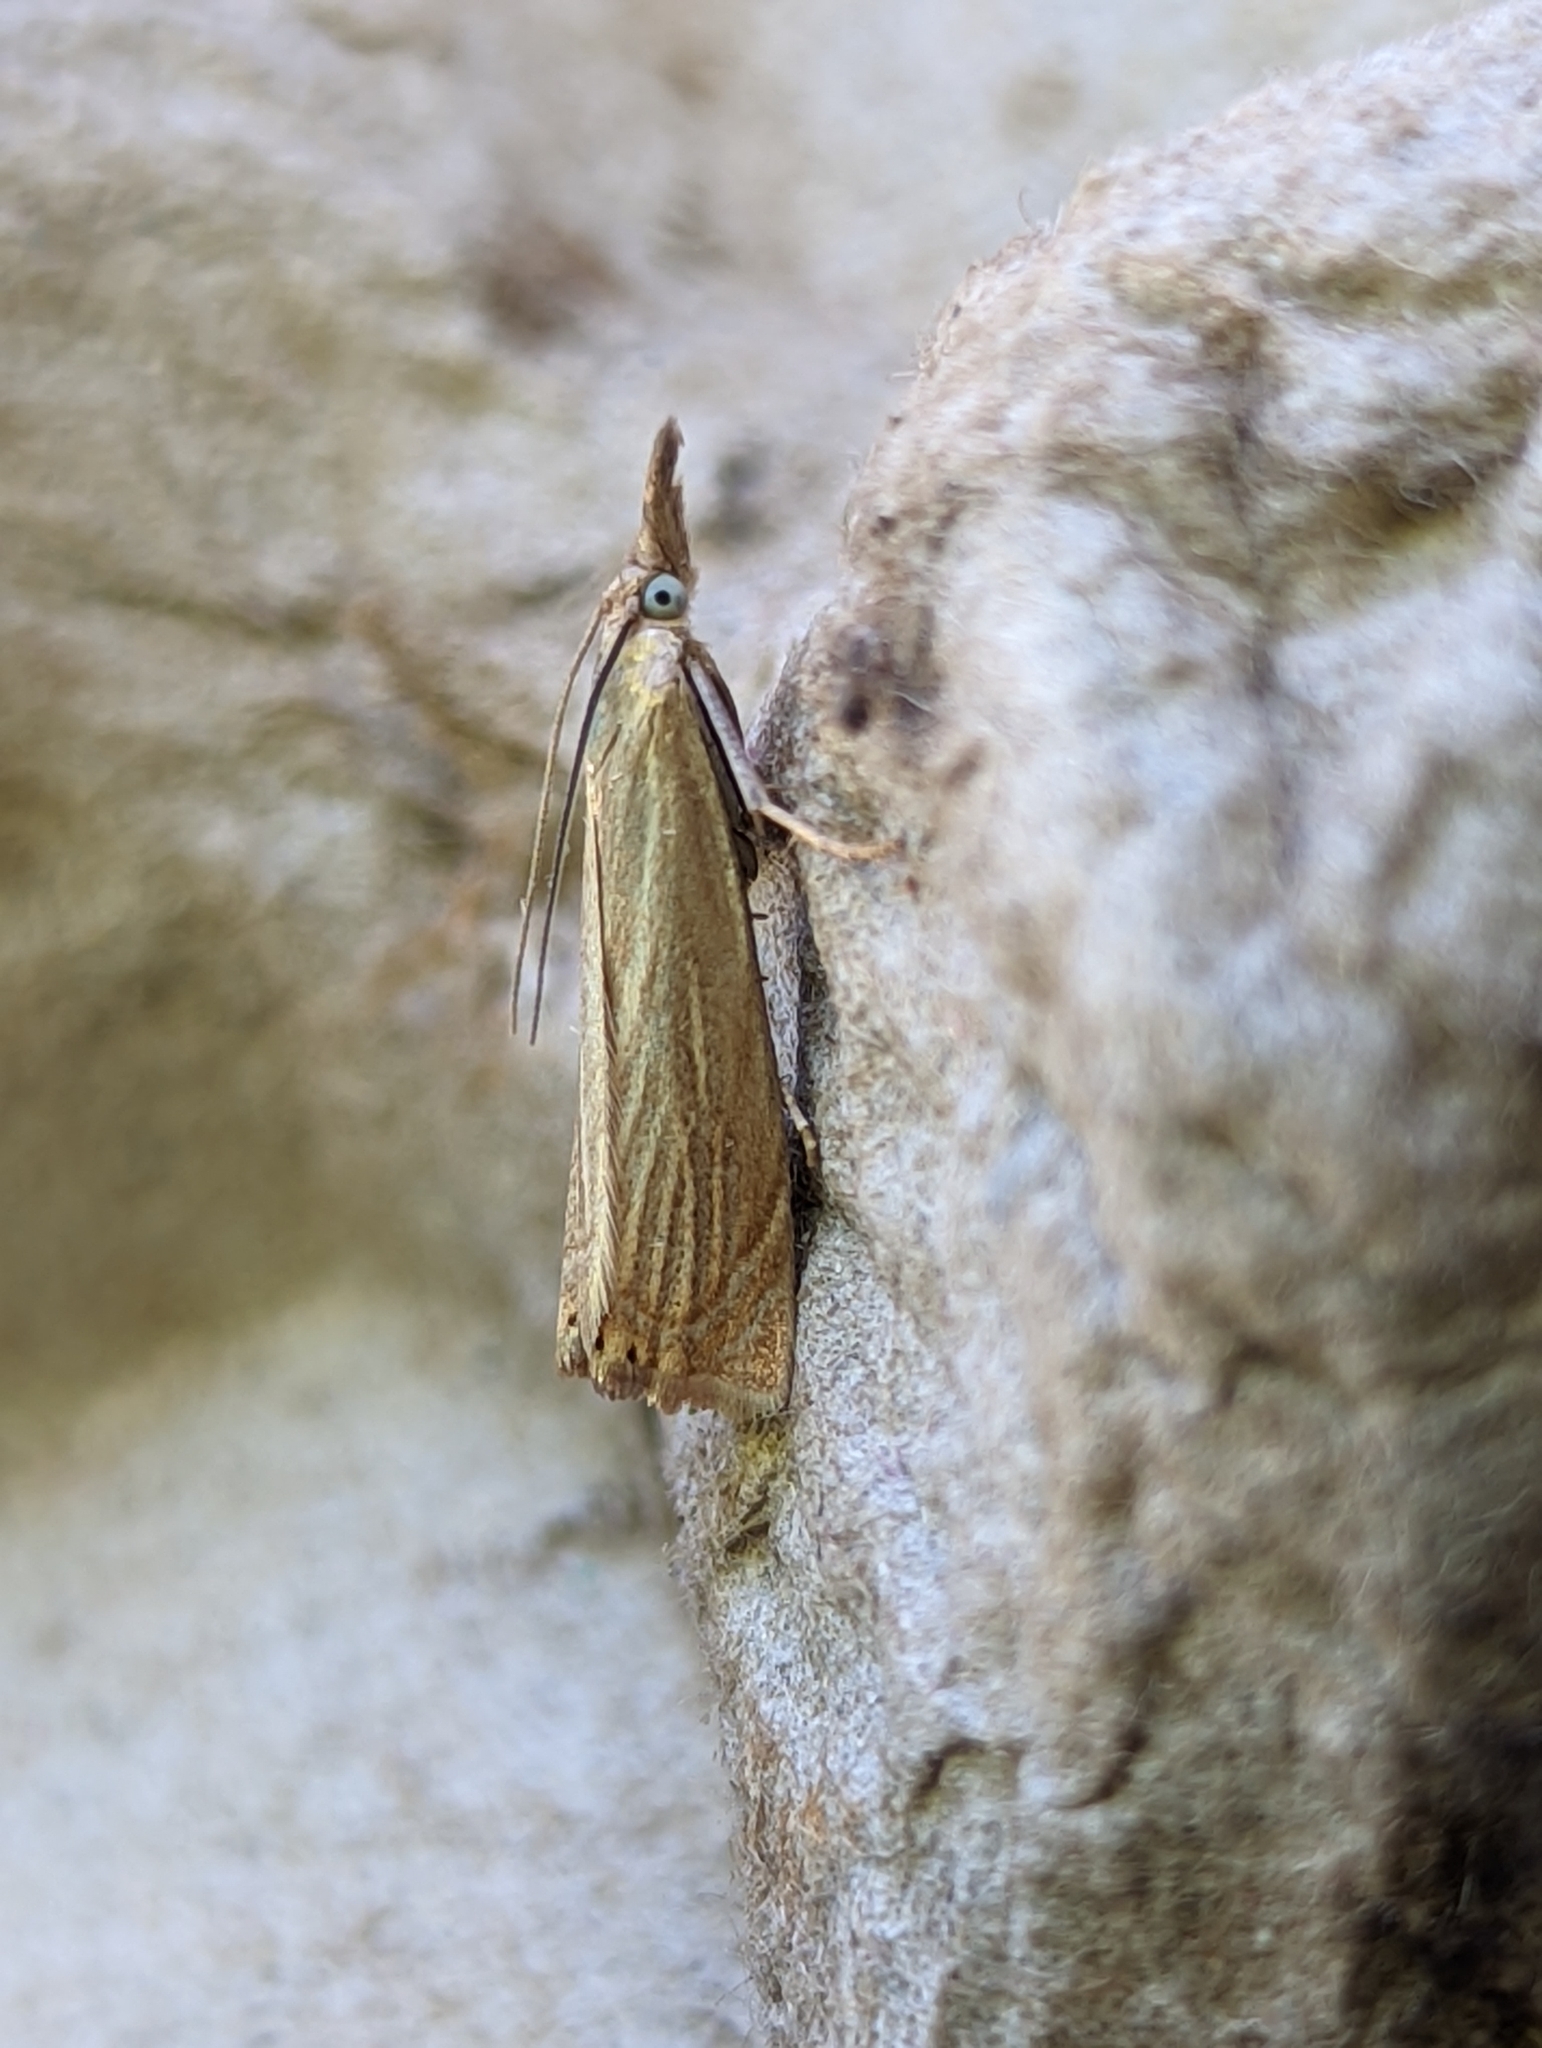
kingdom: Animalia
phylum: Arthropoda
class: Insecta
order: Lepidoptera
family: Crambidae
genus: Chrysoteuchia
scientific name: Chrysoteuchia culmella
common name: Garden grass-veneer
